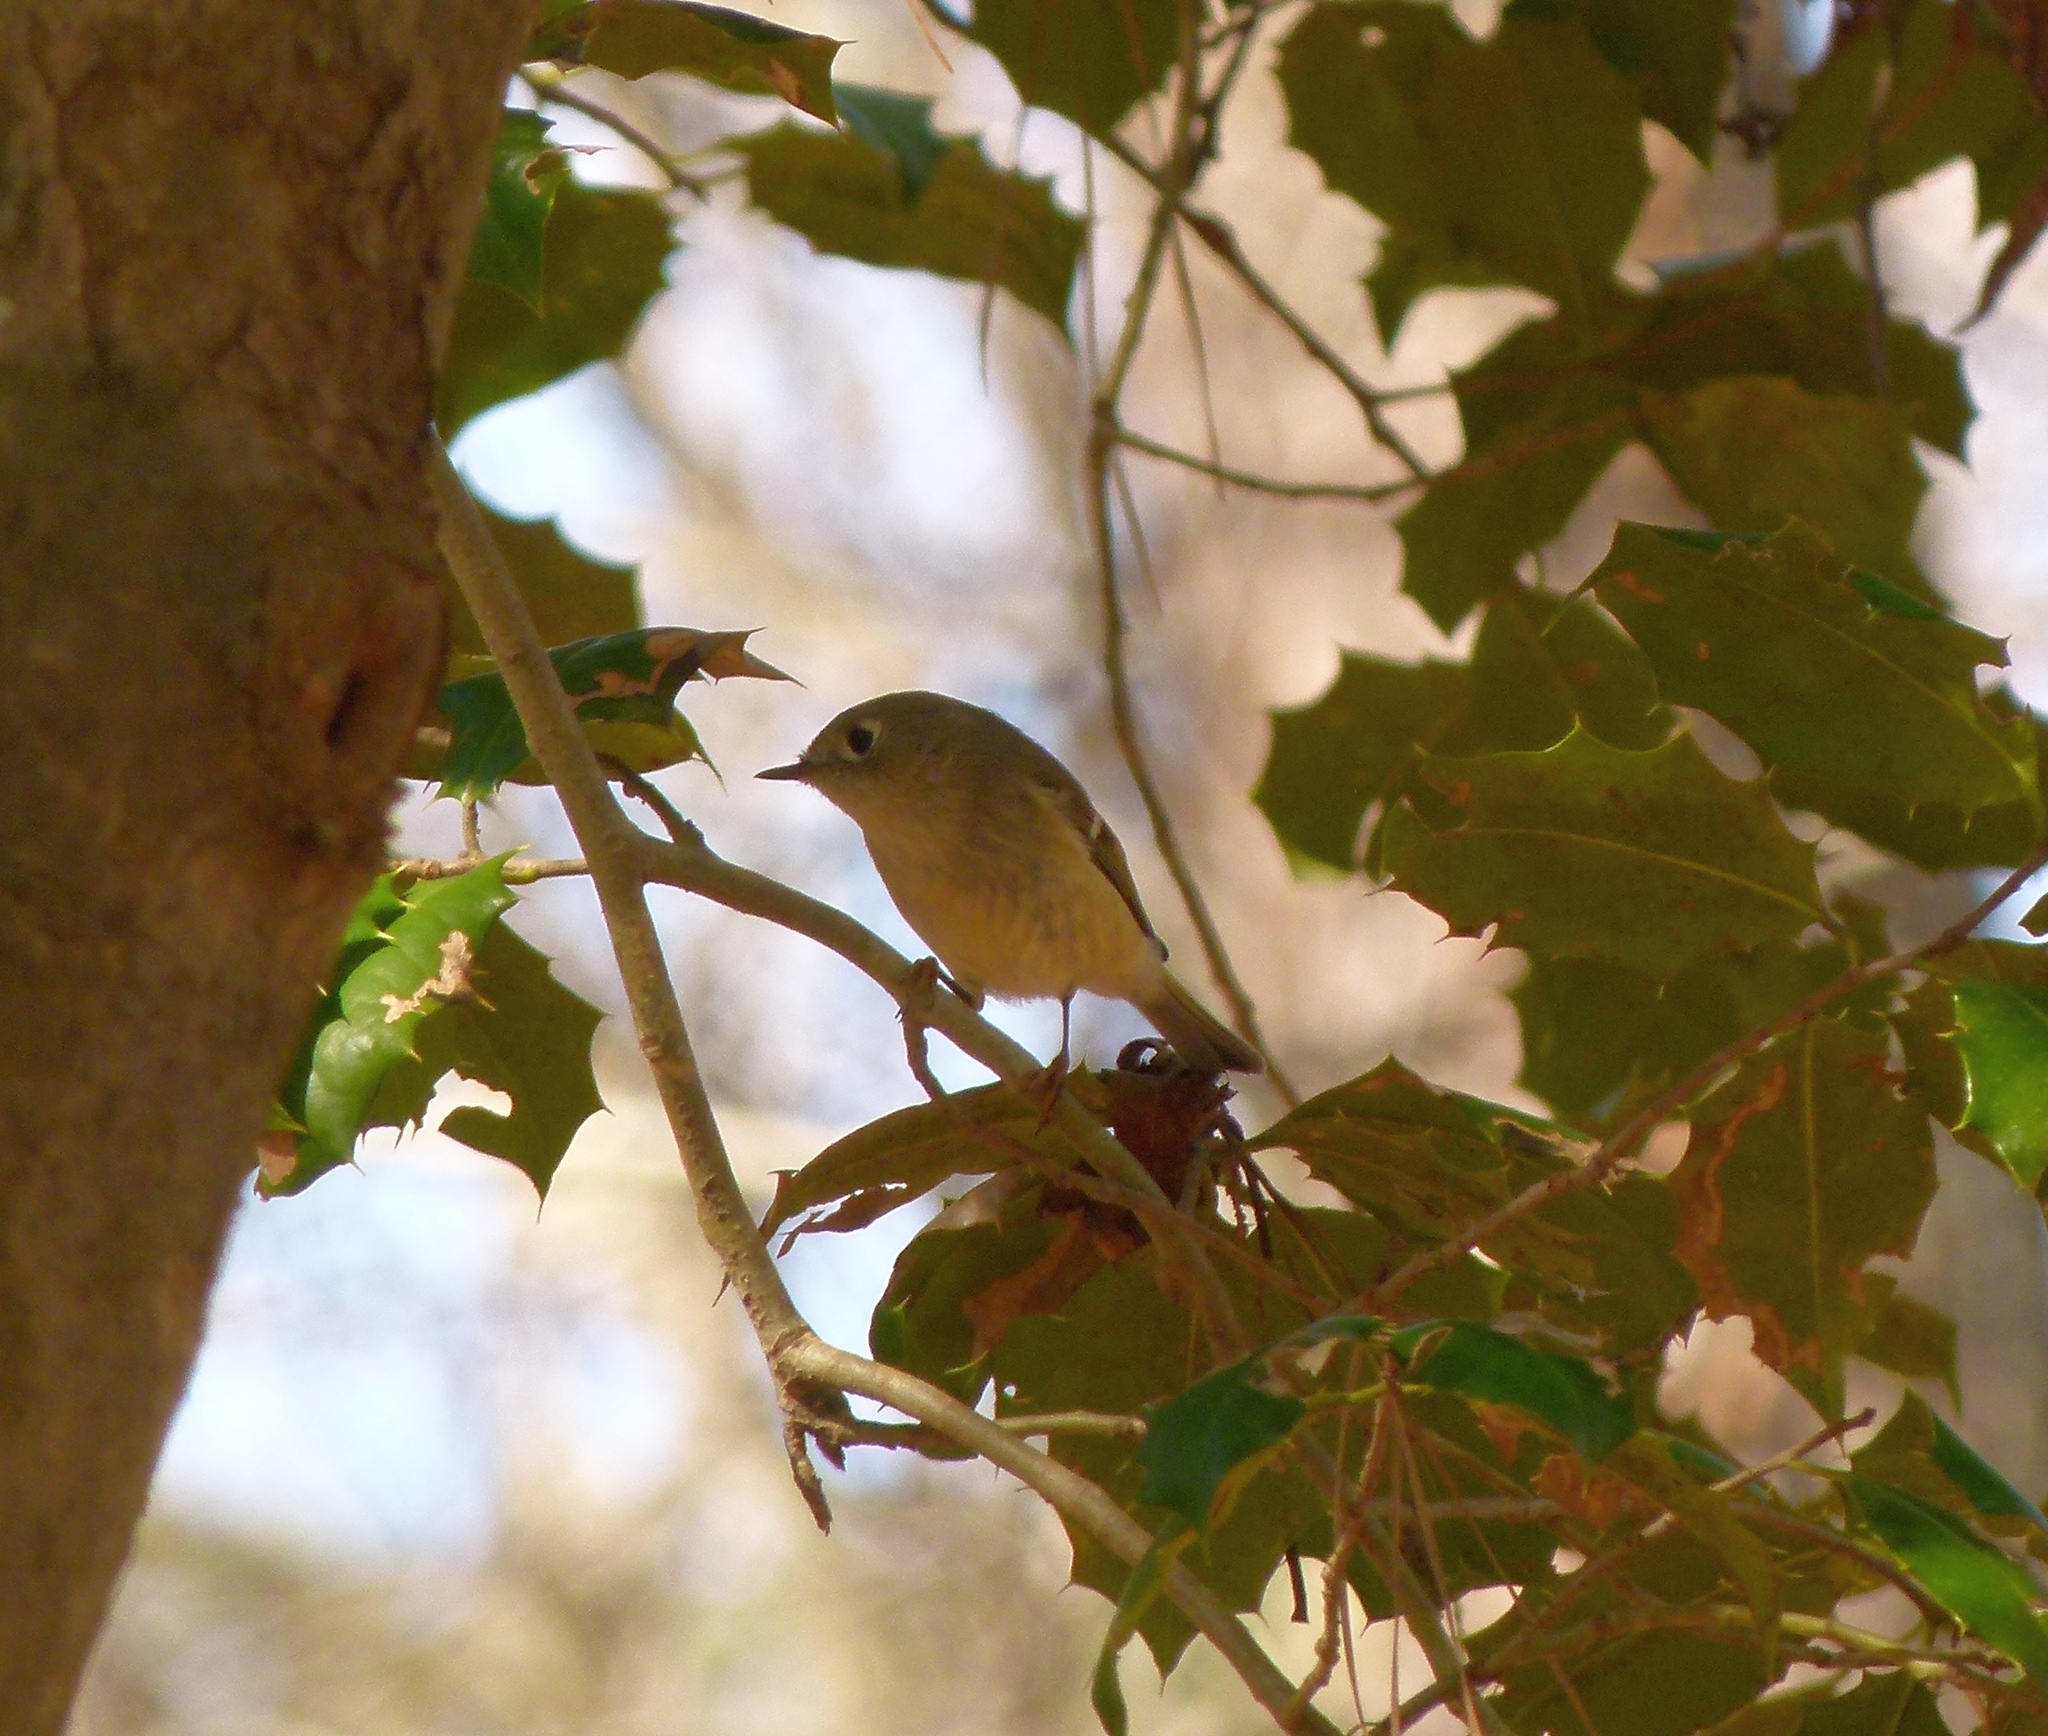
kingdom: Animalia
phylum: Chordata
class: Aves
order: Passeriformes
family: Regulidae
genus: Regulus
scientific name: Regulus calendula
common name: Ruby-crowned kinglet
